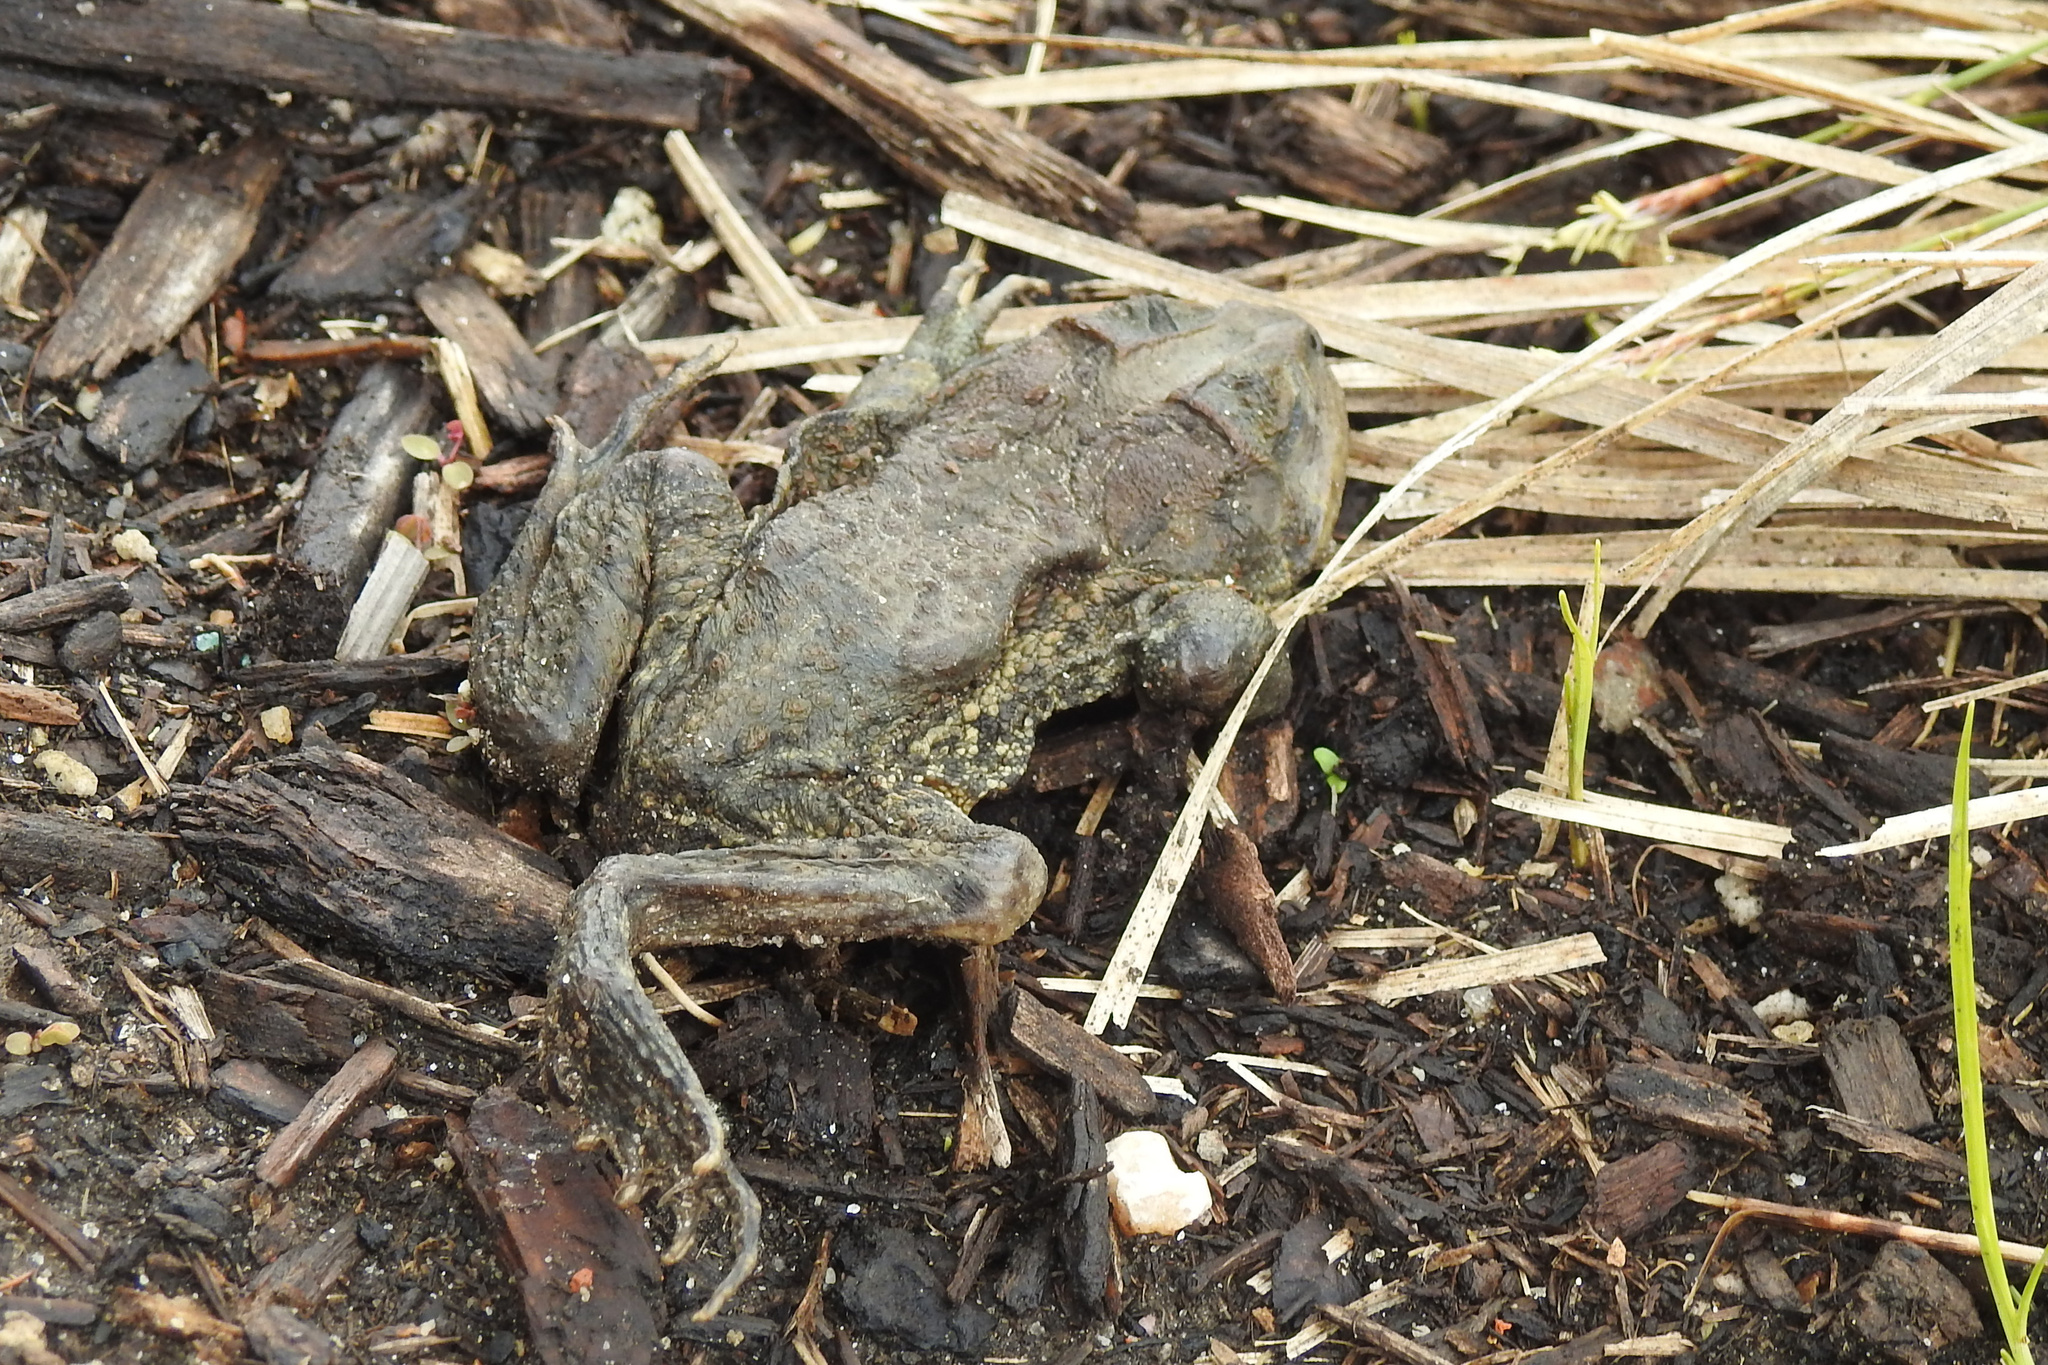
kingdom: Animalia
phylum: Chordata
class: Amphibia
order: Anura
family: Bufonidae
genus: Anaxyrus
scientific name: Anaxyrus americanus
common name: American toad
